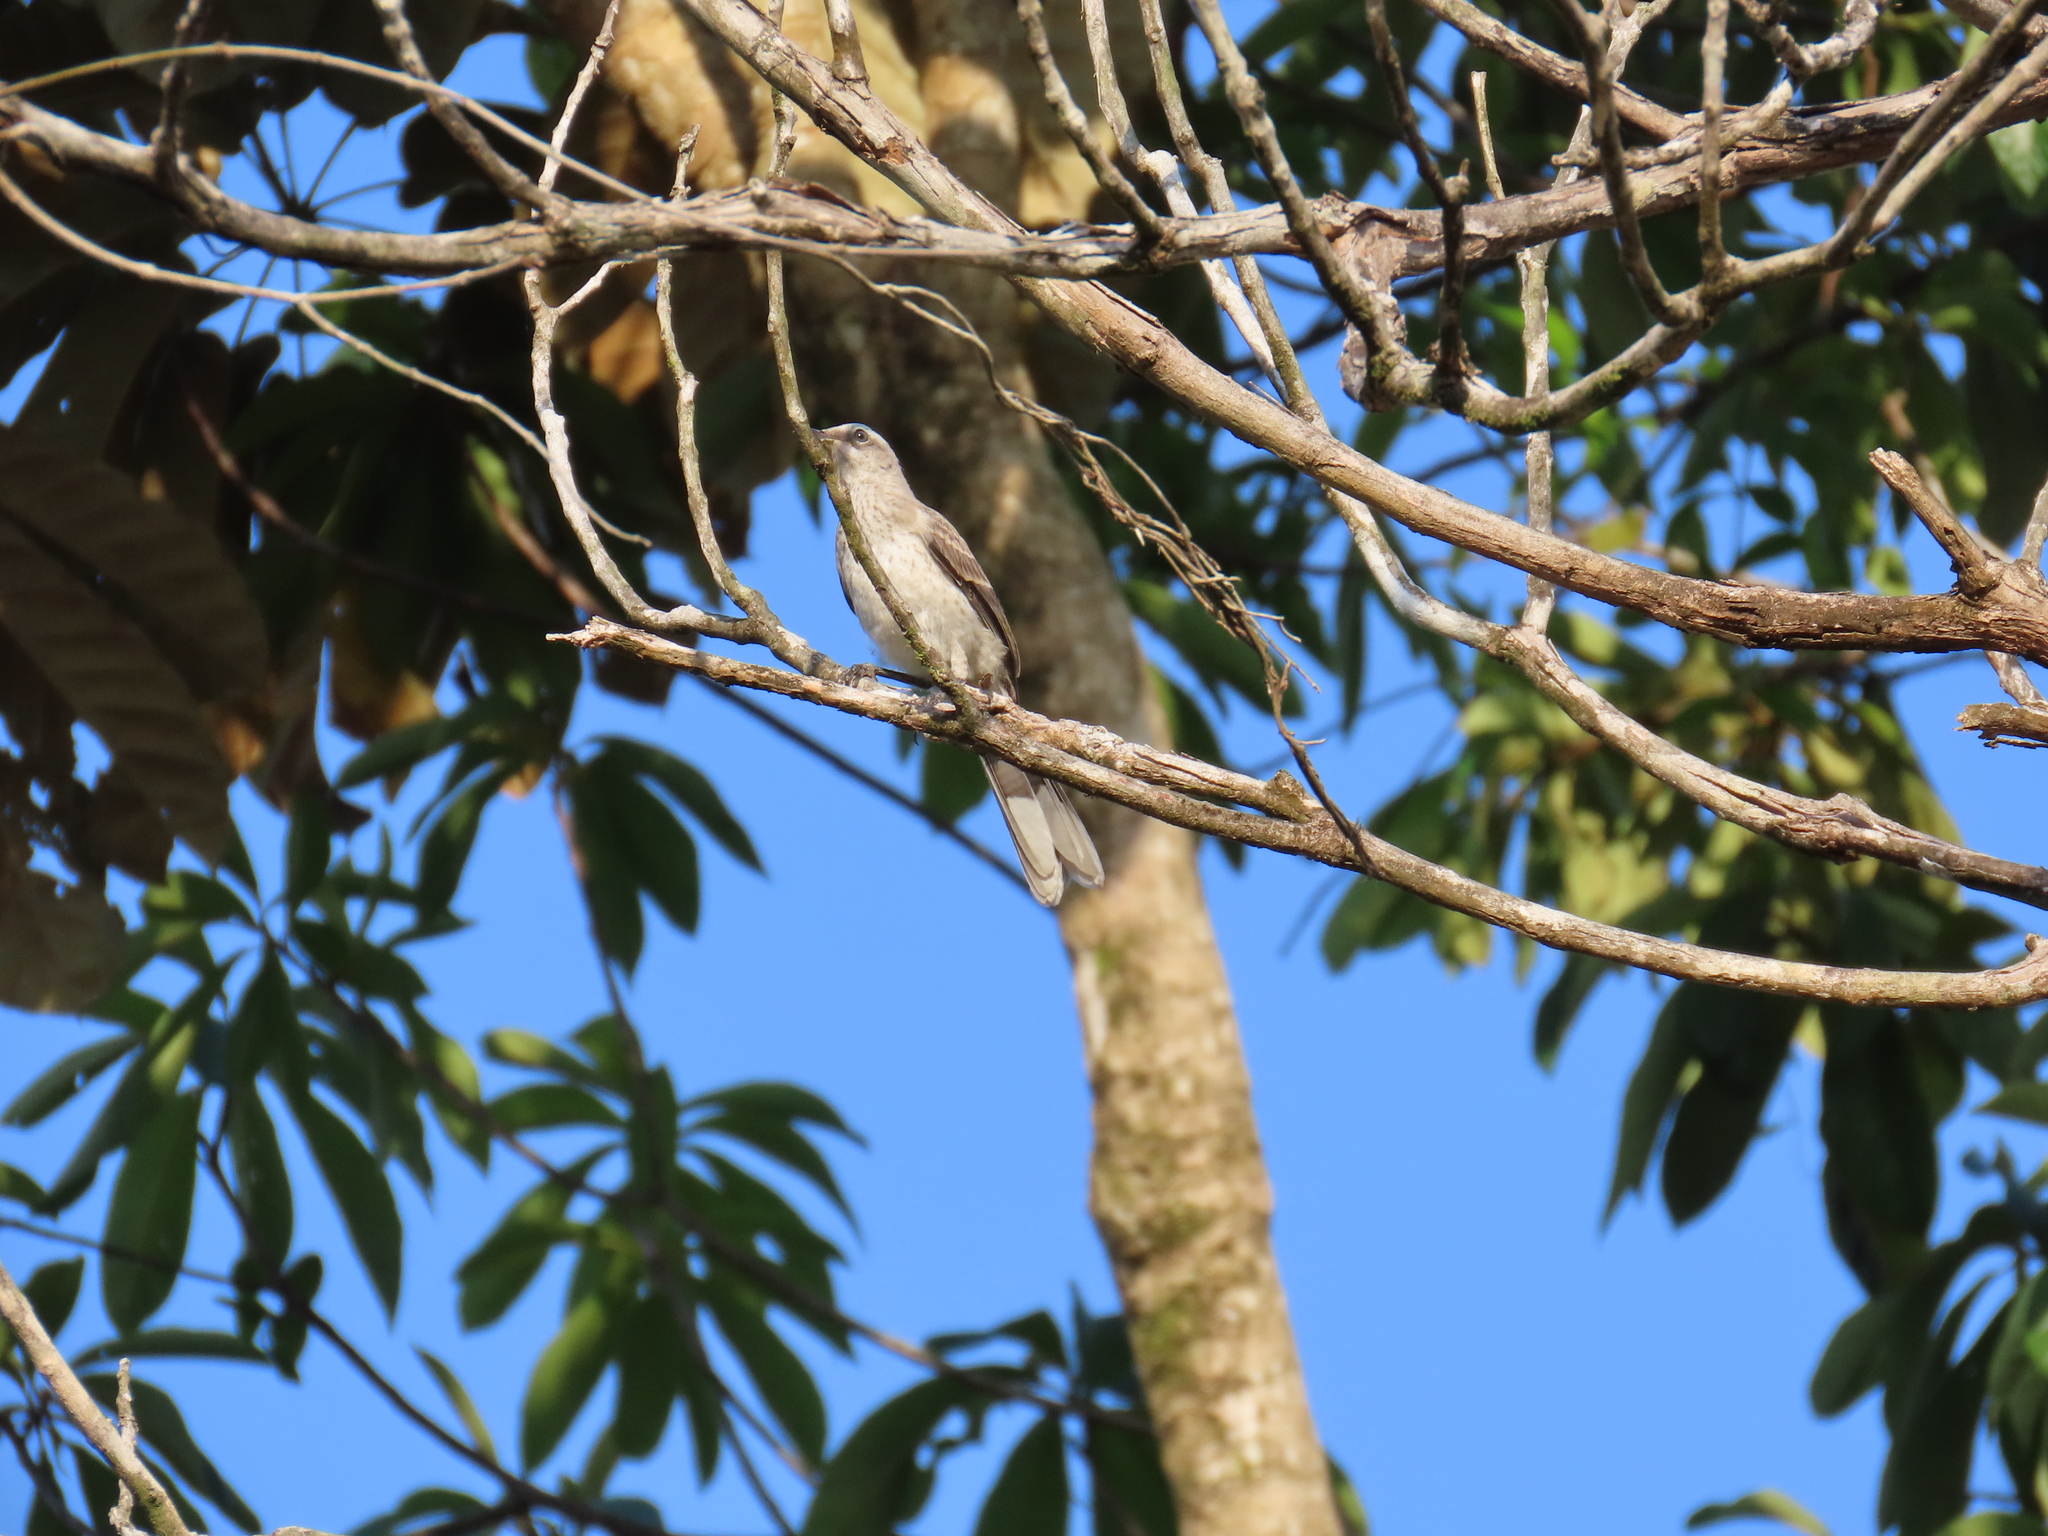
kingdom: Animalia
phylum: Chordata
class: Aves
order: Passeriformes
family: Mimidae
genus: Mimus
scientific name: Mimus gilvus
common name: Tropical mockingbird
